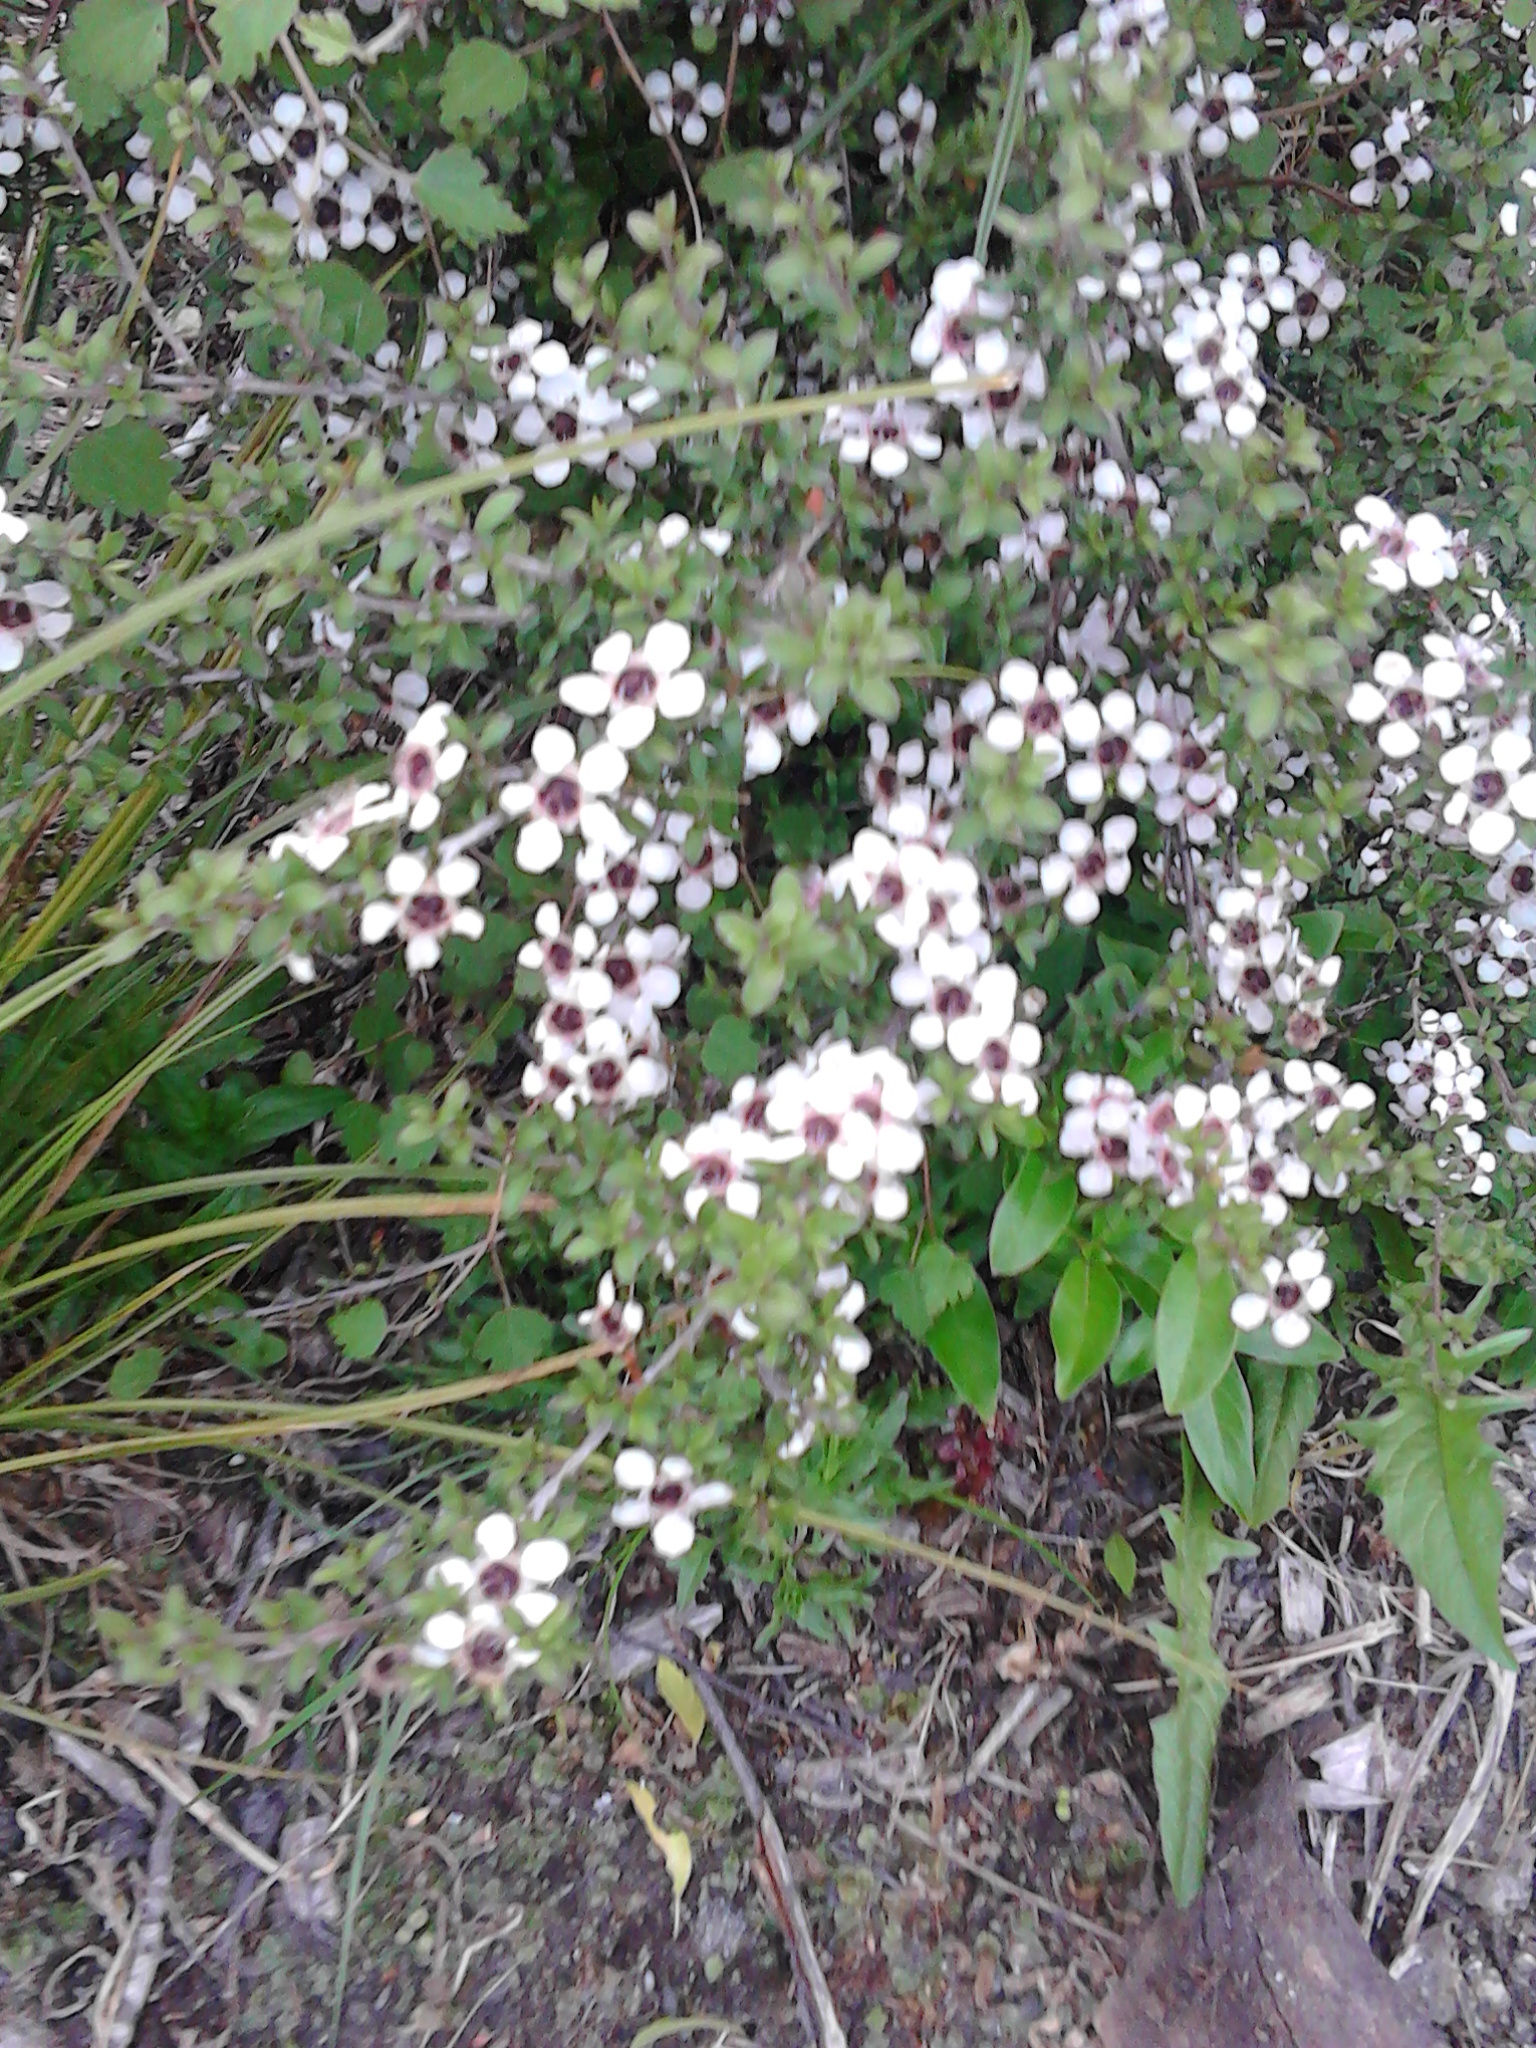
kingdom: Plantae
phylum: Tracheophyta
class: Magnoliopsida
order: Myrtales
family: Myrtaceae
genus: Leptospermum
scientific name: Leptospermum scoparium
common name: Broom tea-tree
